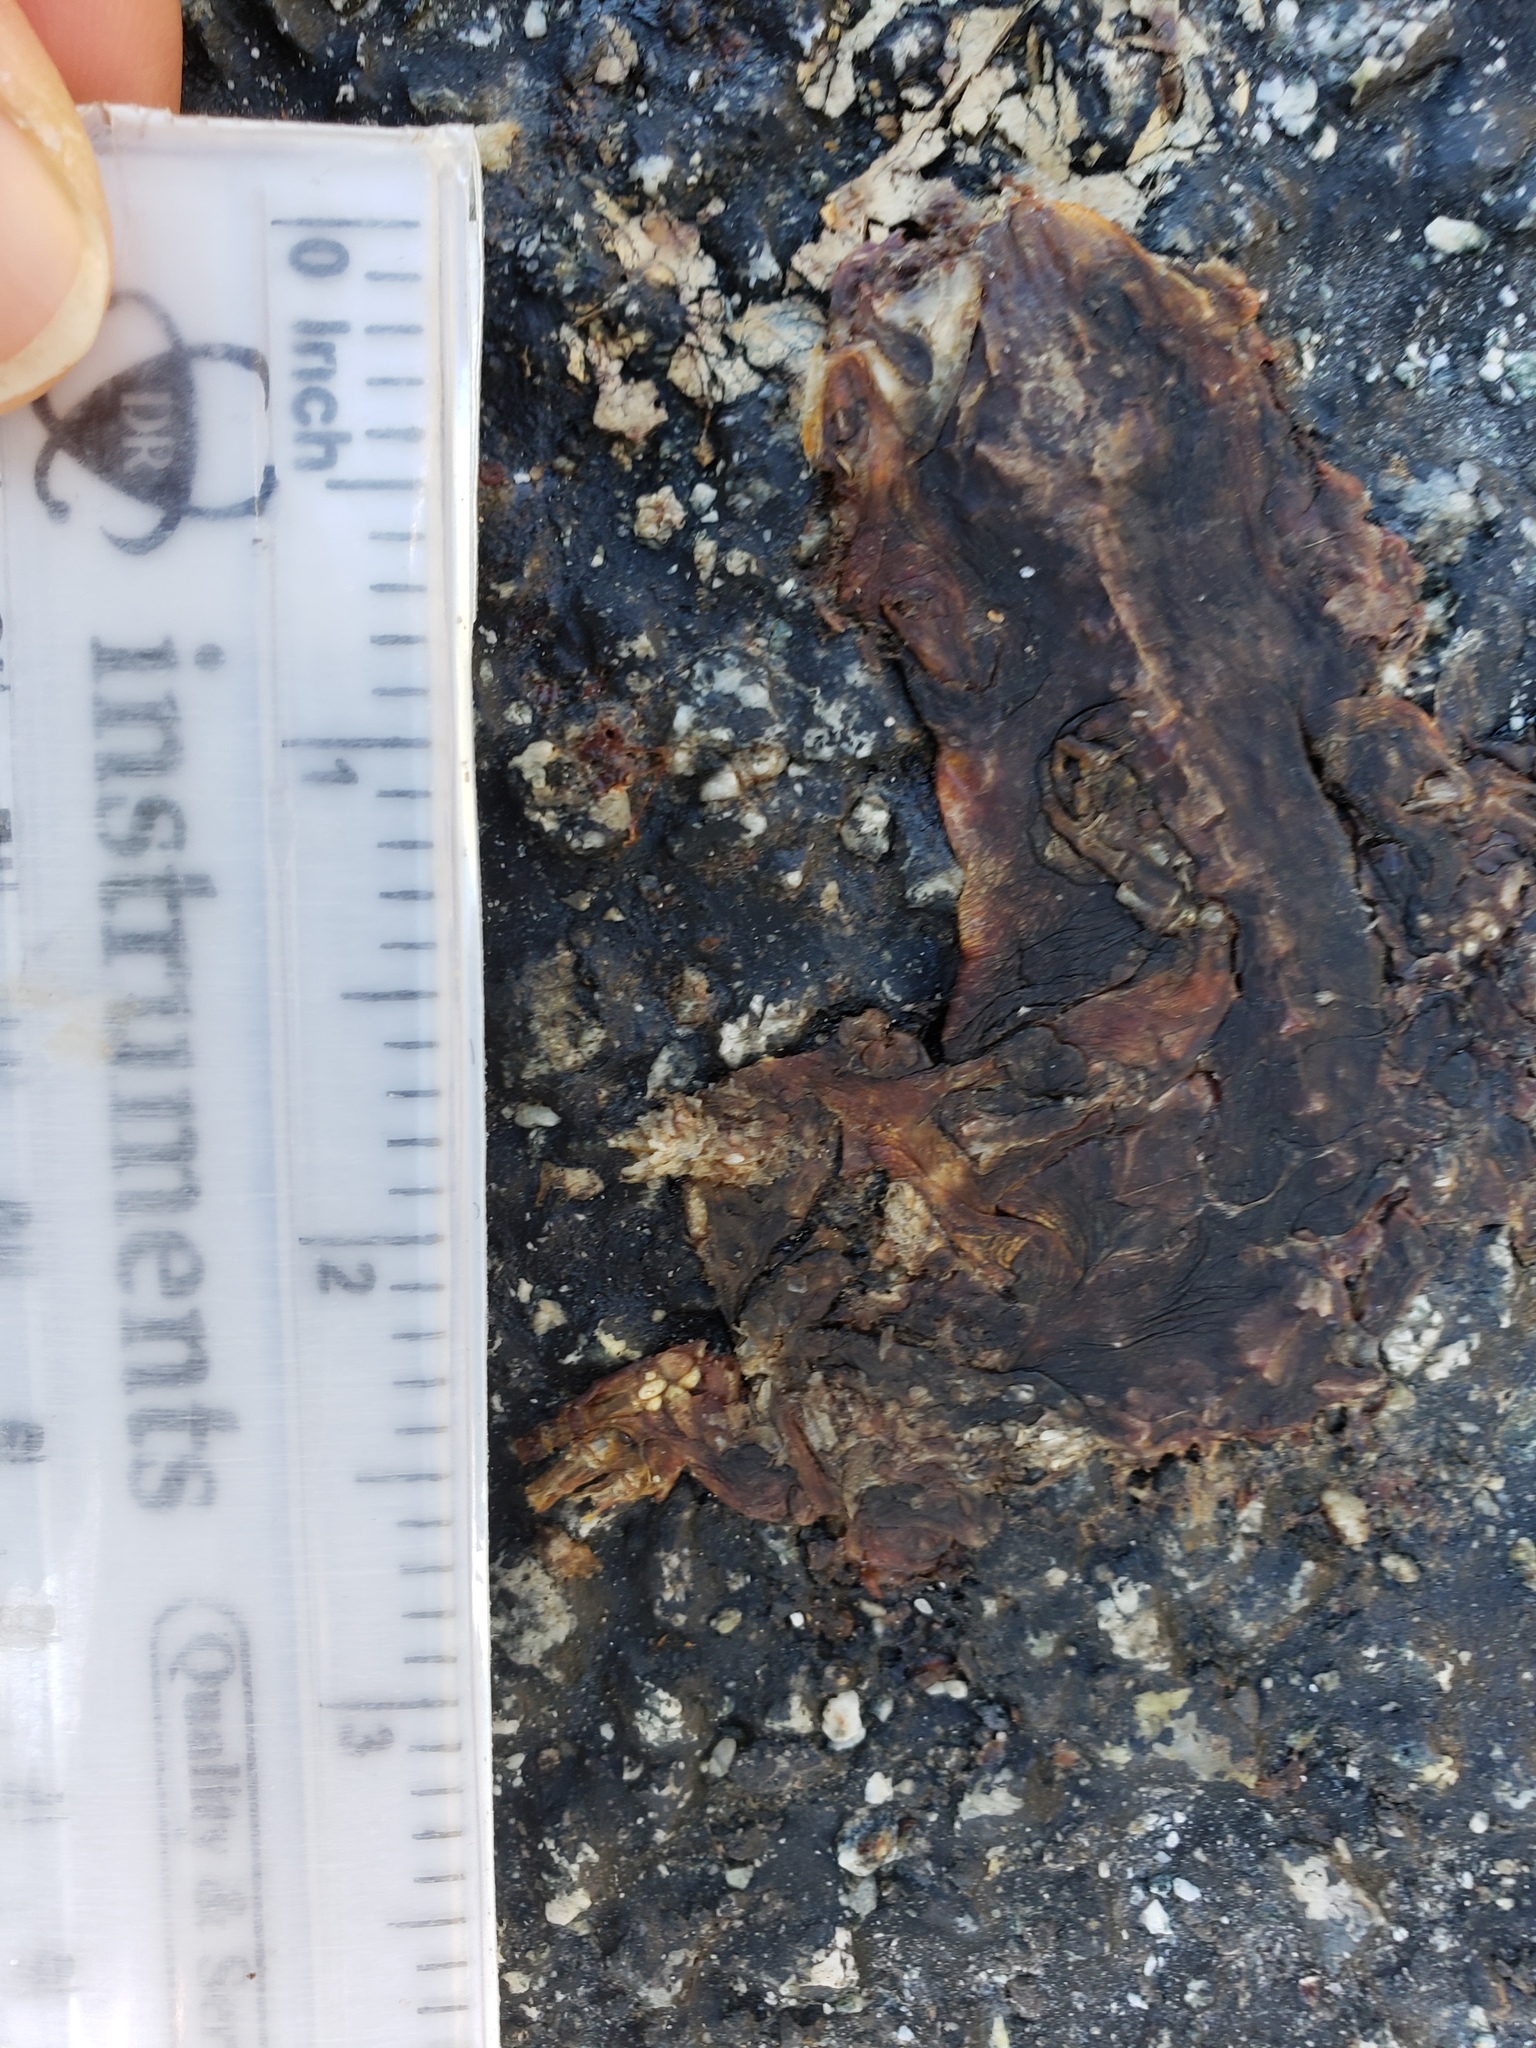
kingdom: Animalia
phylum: Chordata
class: Amphibia
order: Caudata
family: Salamandridae
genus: Taricha
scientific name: Taricha
